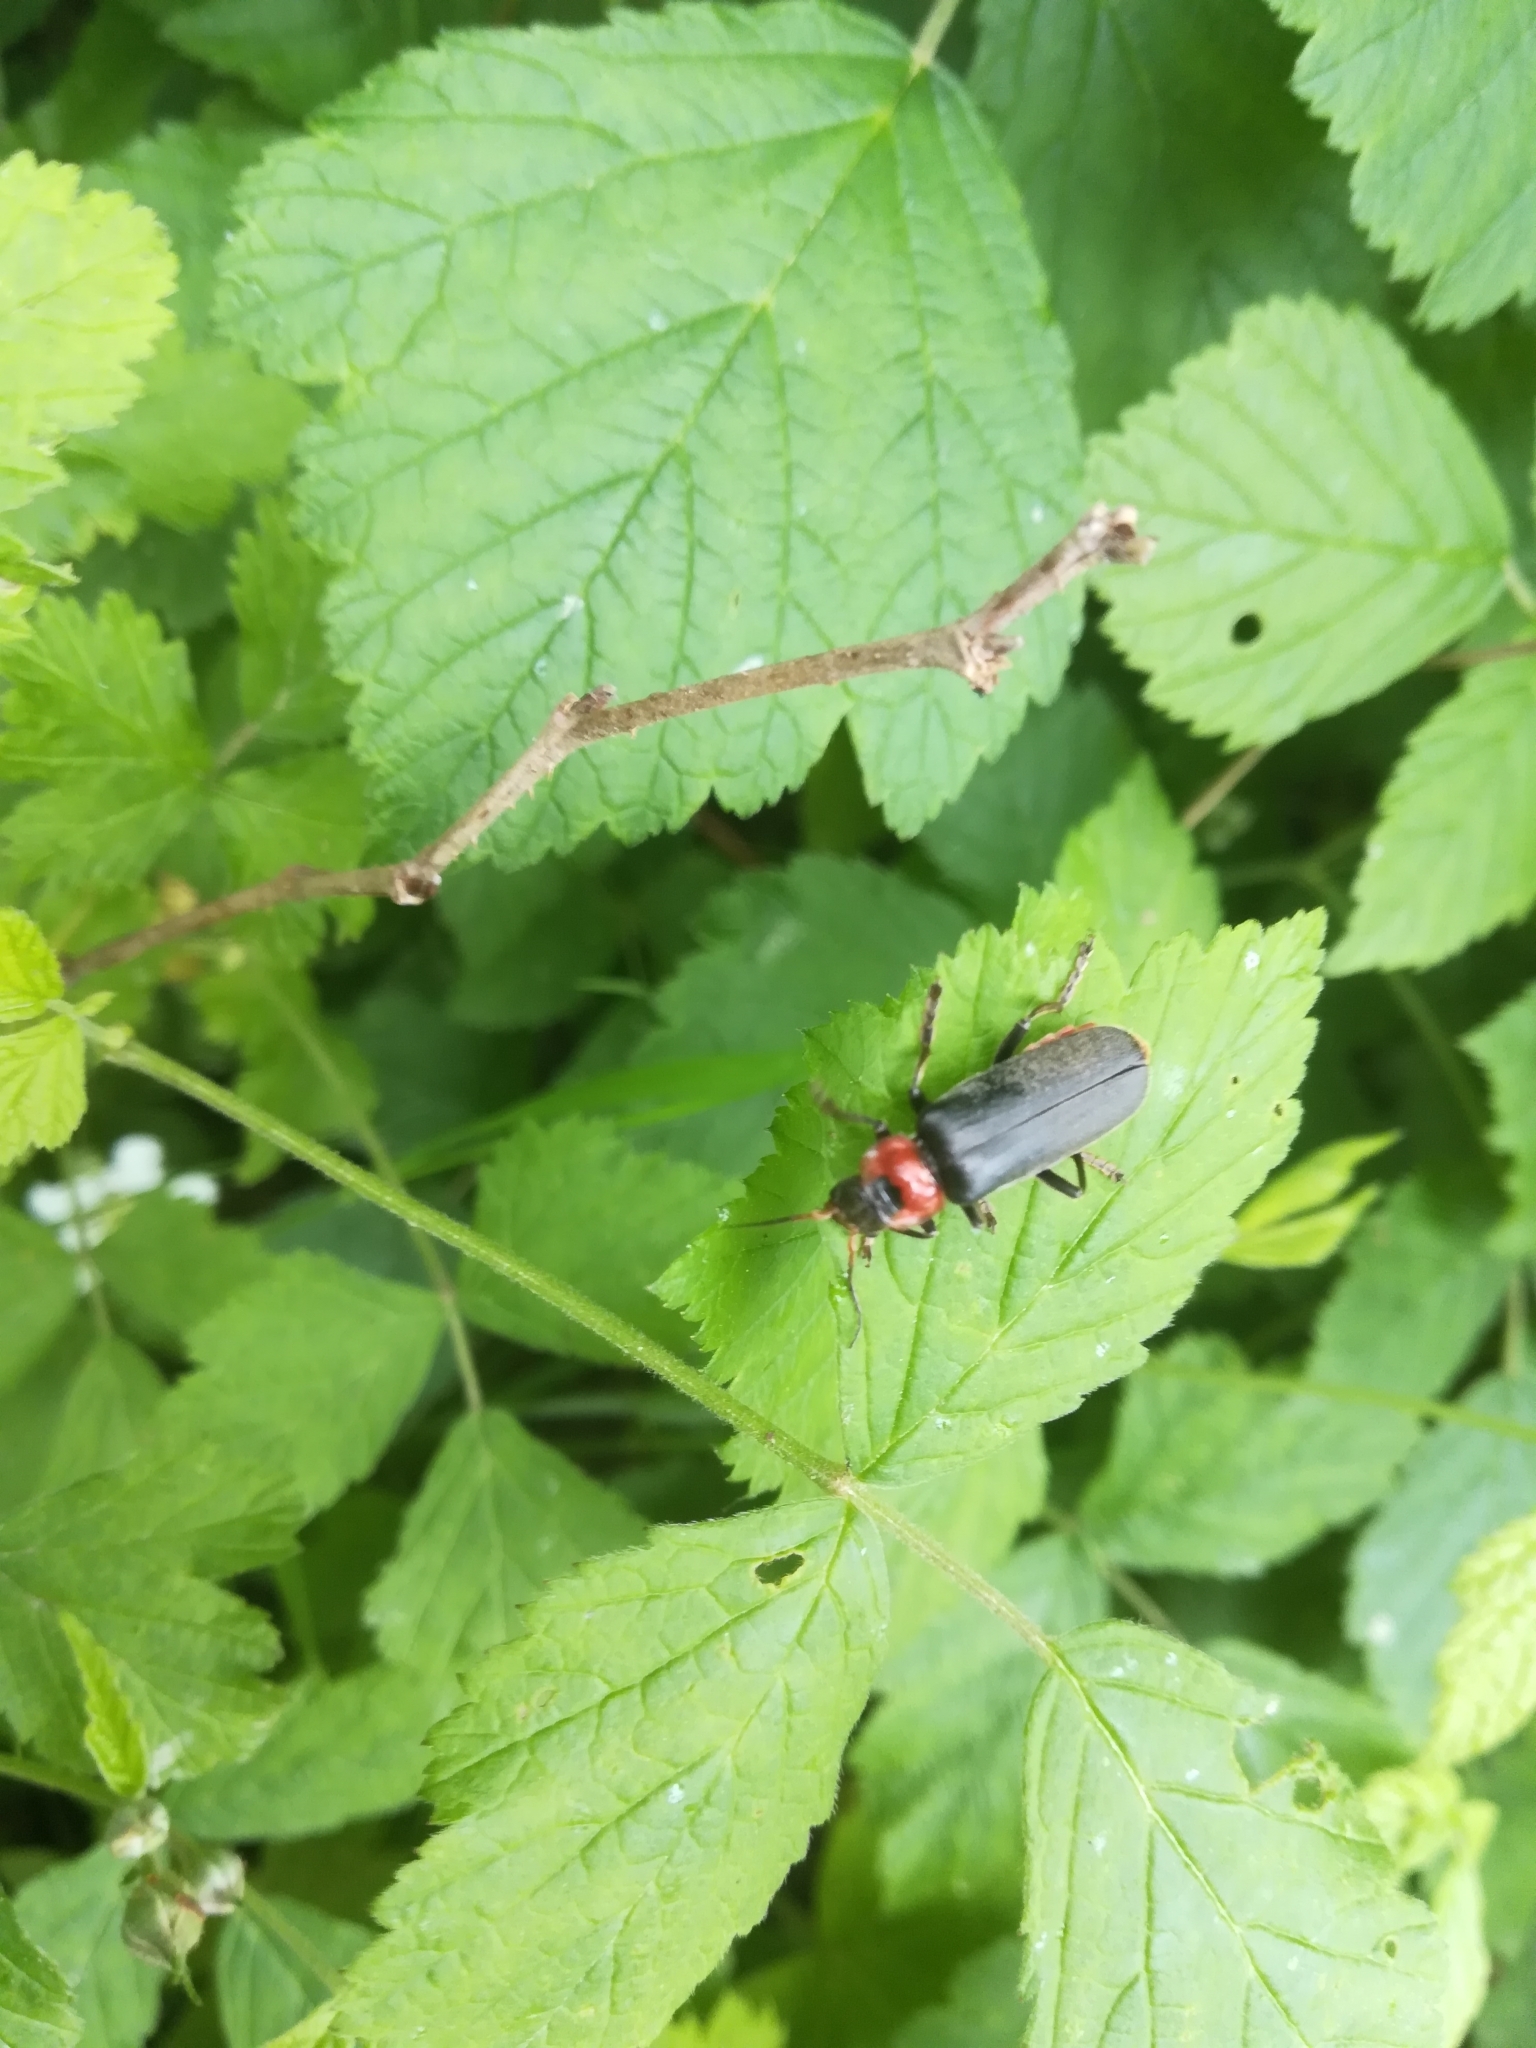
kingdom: Animalia
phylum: Arthropoda
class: Insecta
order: Coleoptera
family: Cantharidae
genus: Cantharis
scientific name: Cantharis fusca
